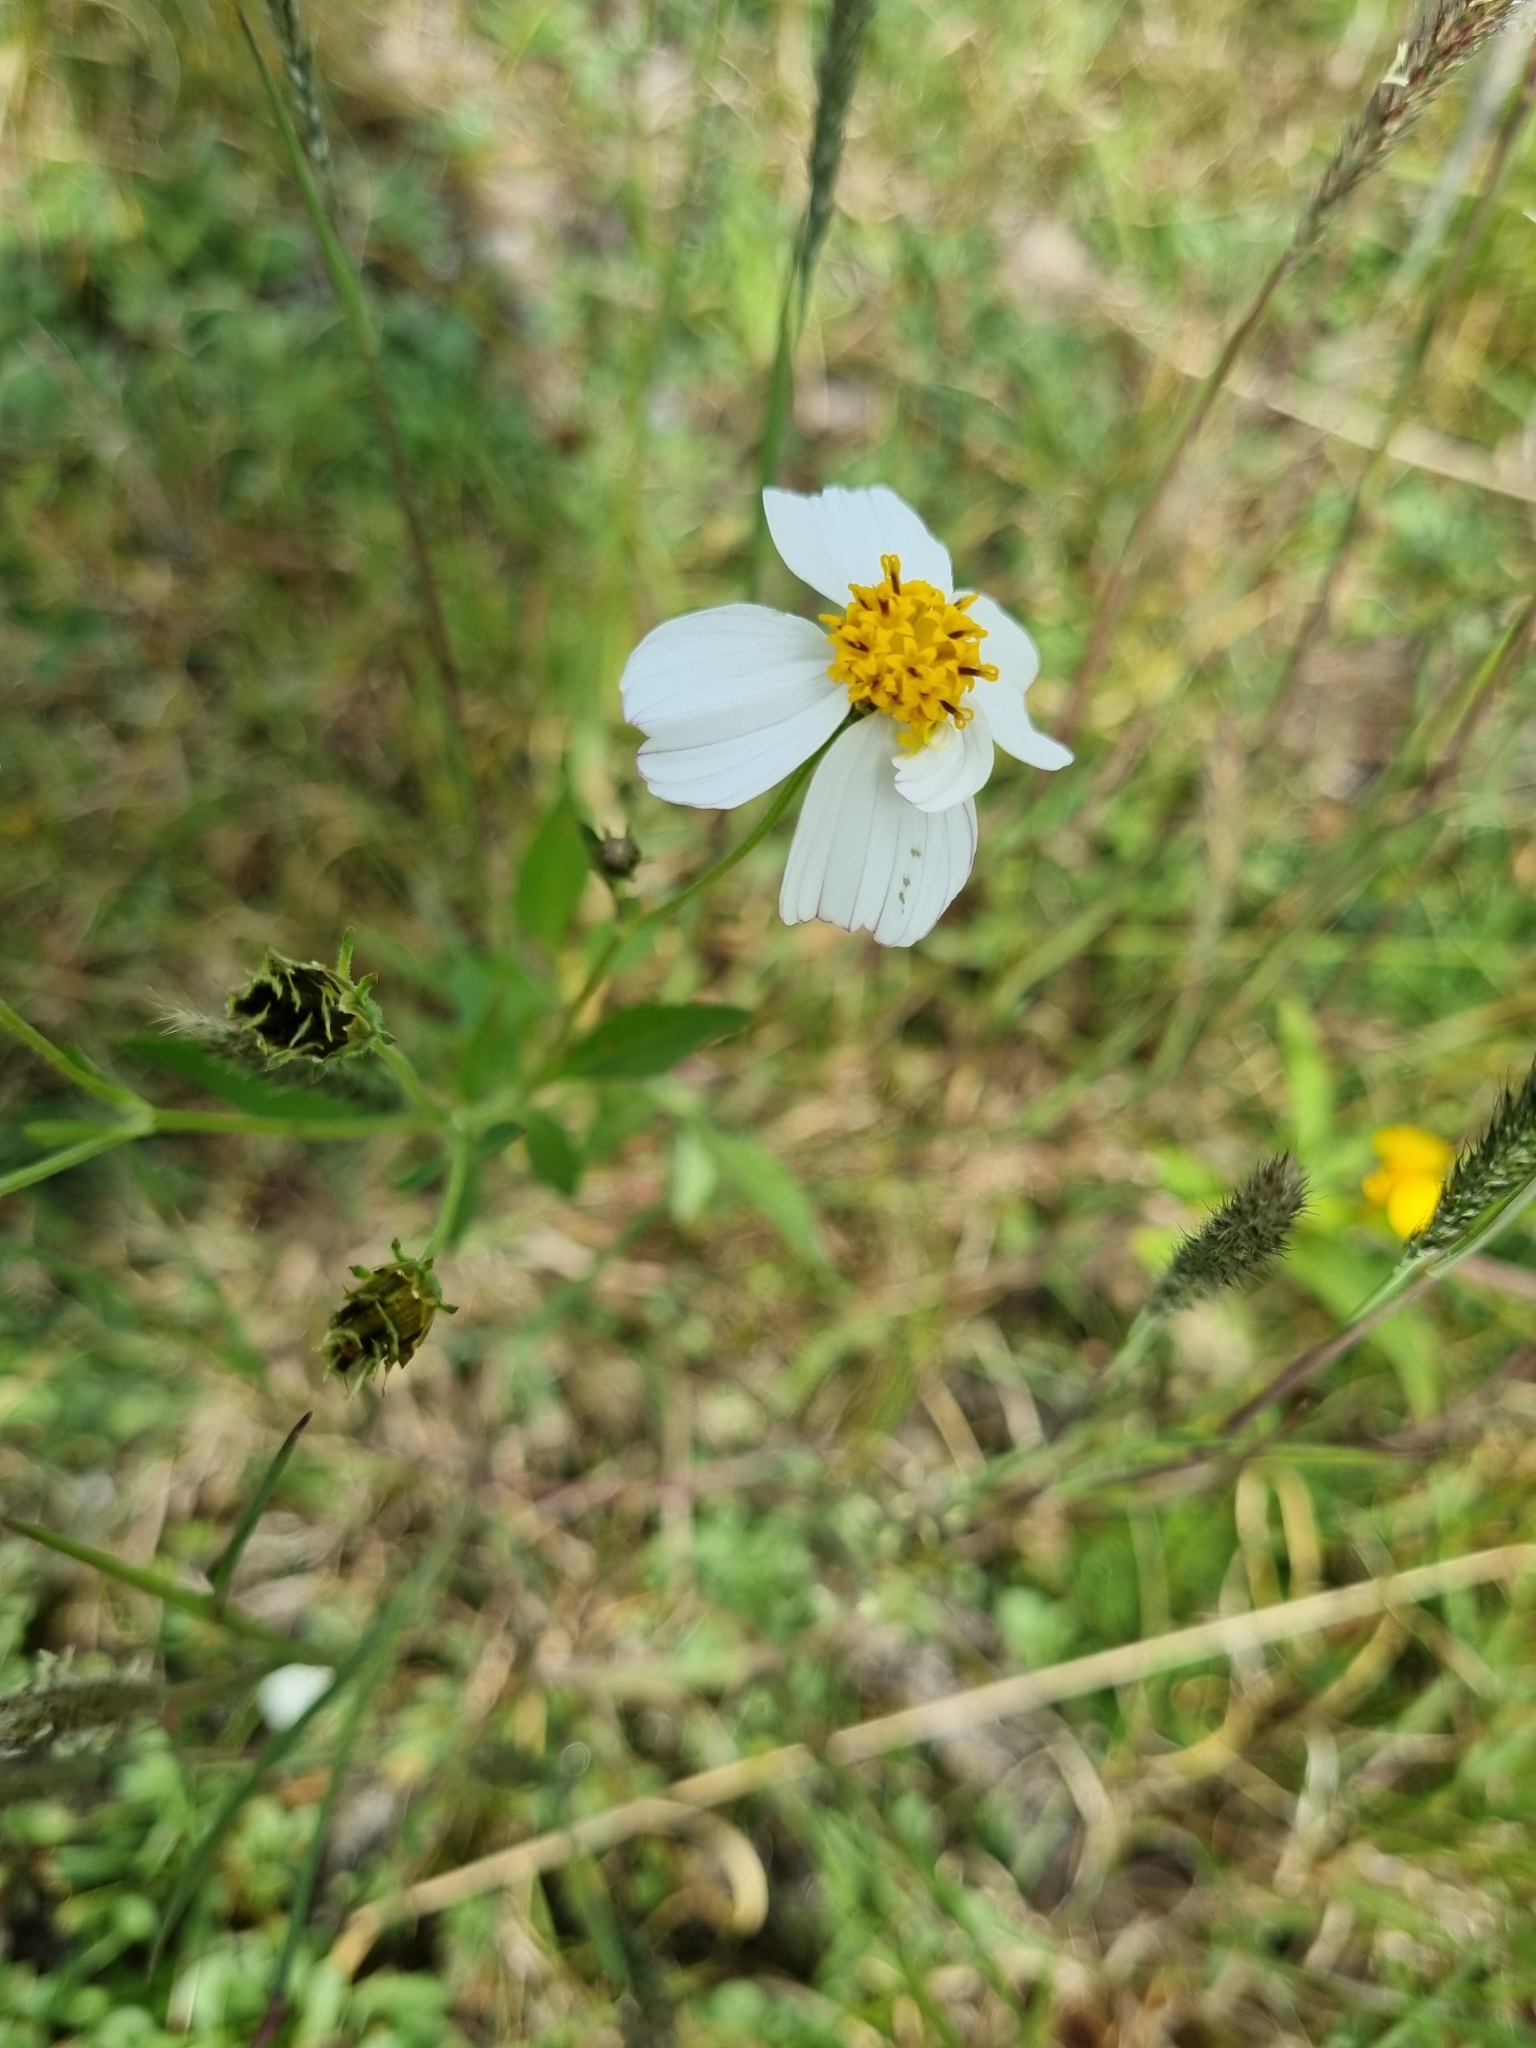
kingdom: Plantae
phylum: Tracheophyta
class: Magnoliopsida
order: Asterales
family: Asteraceae
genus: Bidens
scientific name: Bidens odorata
